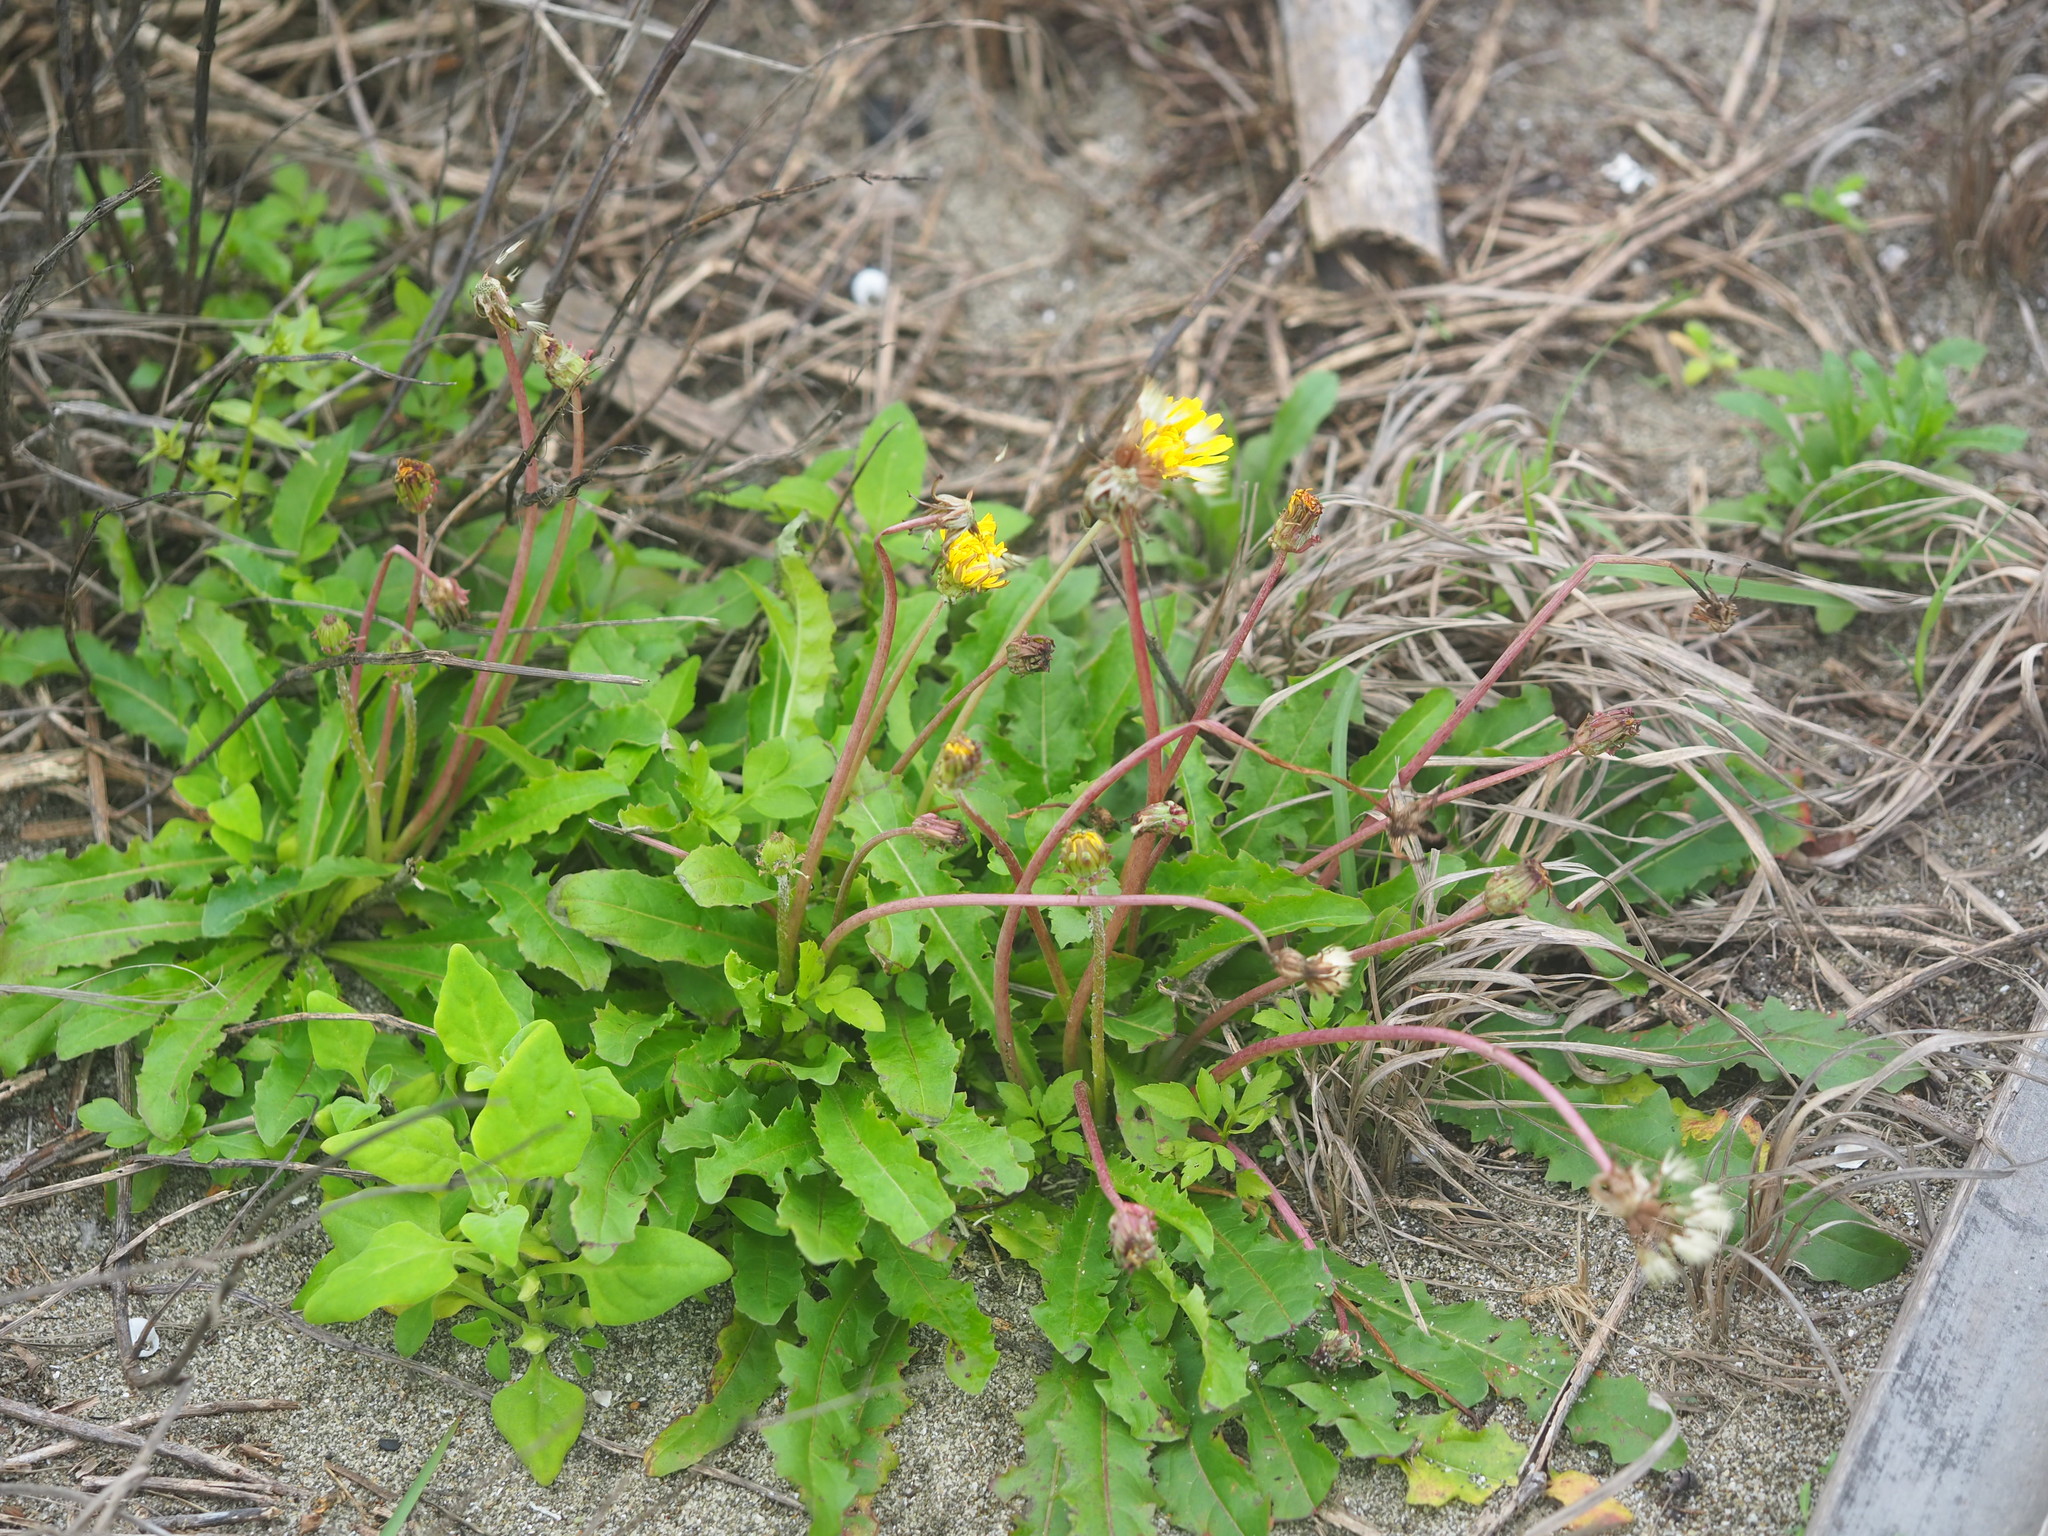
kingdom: Plantae
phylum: Tracheophyta
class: Magnoliopsida
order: Asterales
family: Asteraceae
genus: Taraxacum
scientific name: Taraxacum formosanum
